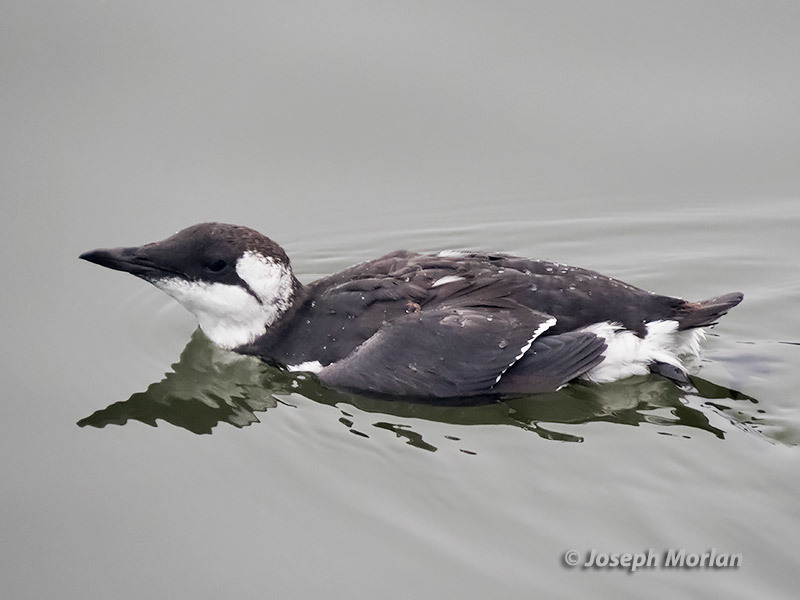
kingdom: Animalia
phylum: Chordata
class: Aves
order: Charadriiformes
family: Alcidae
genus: Uria
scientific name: Uria aalge
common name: Common murre
